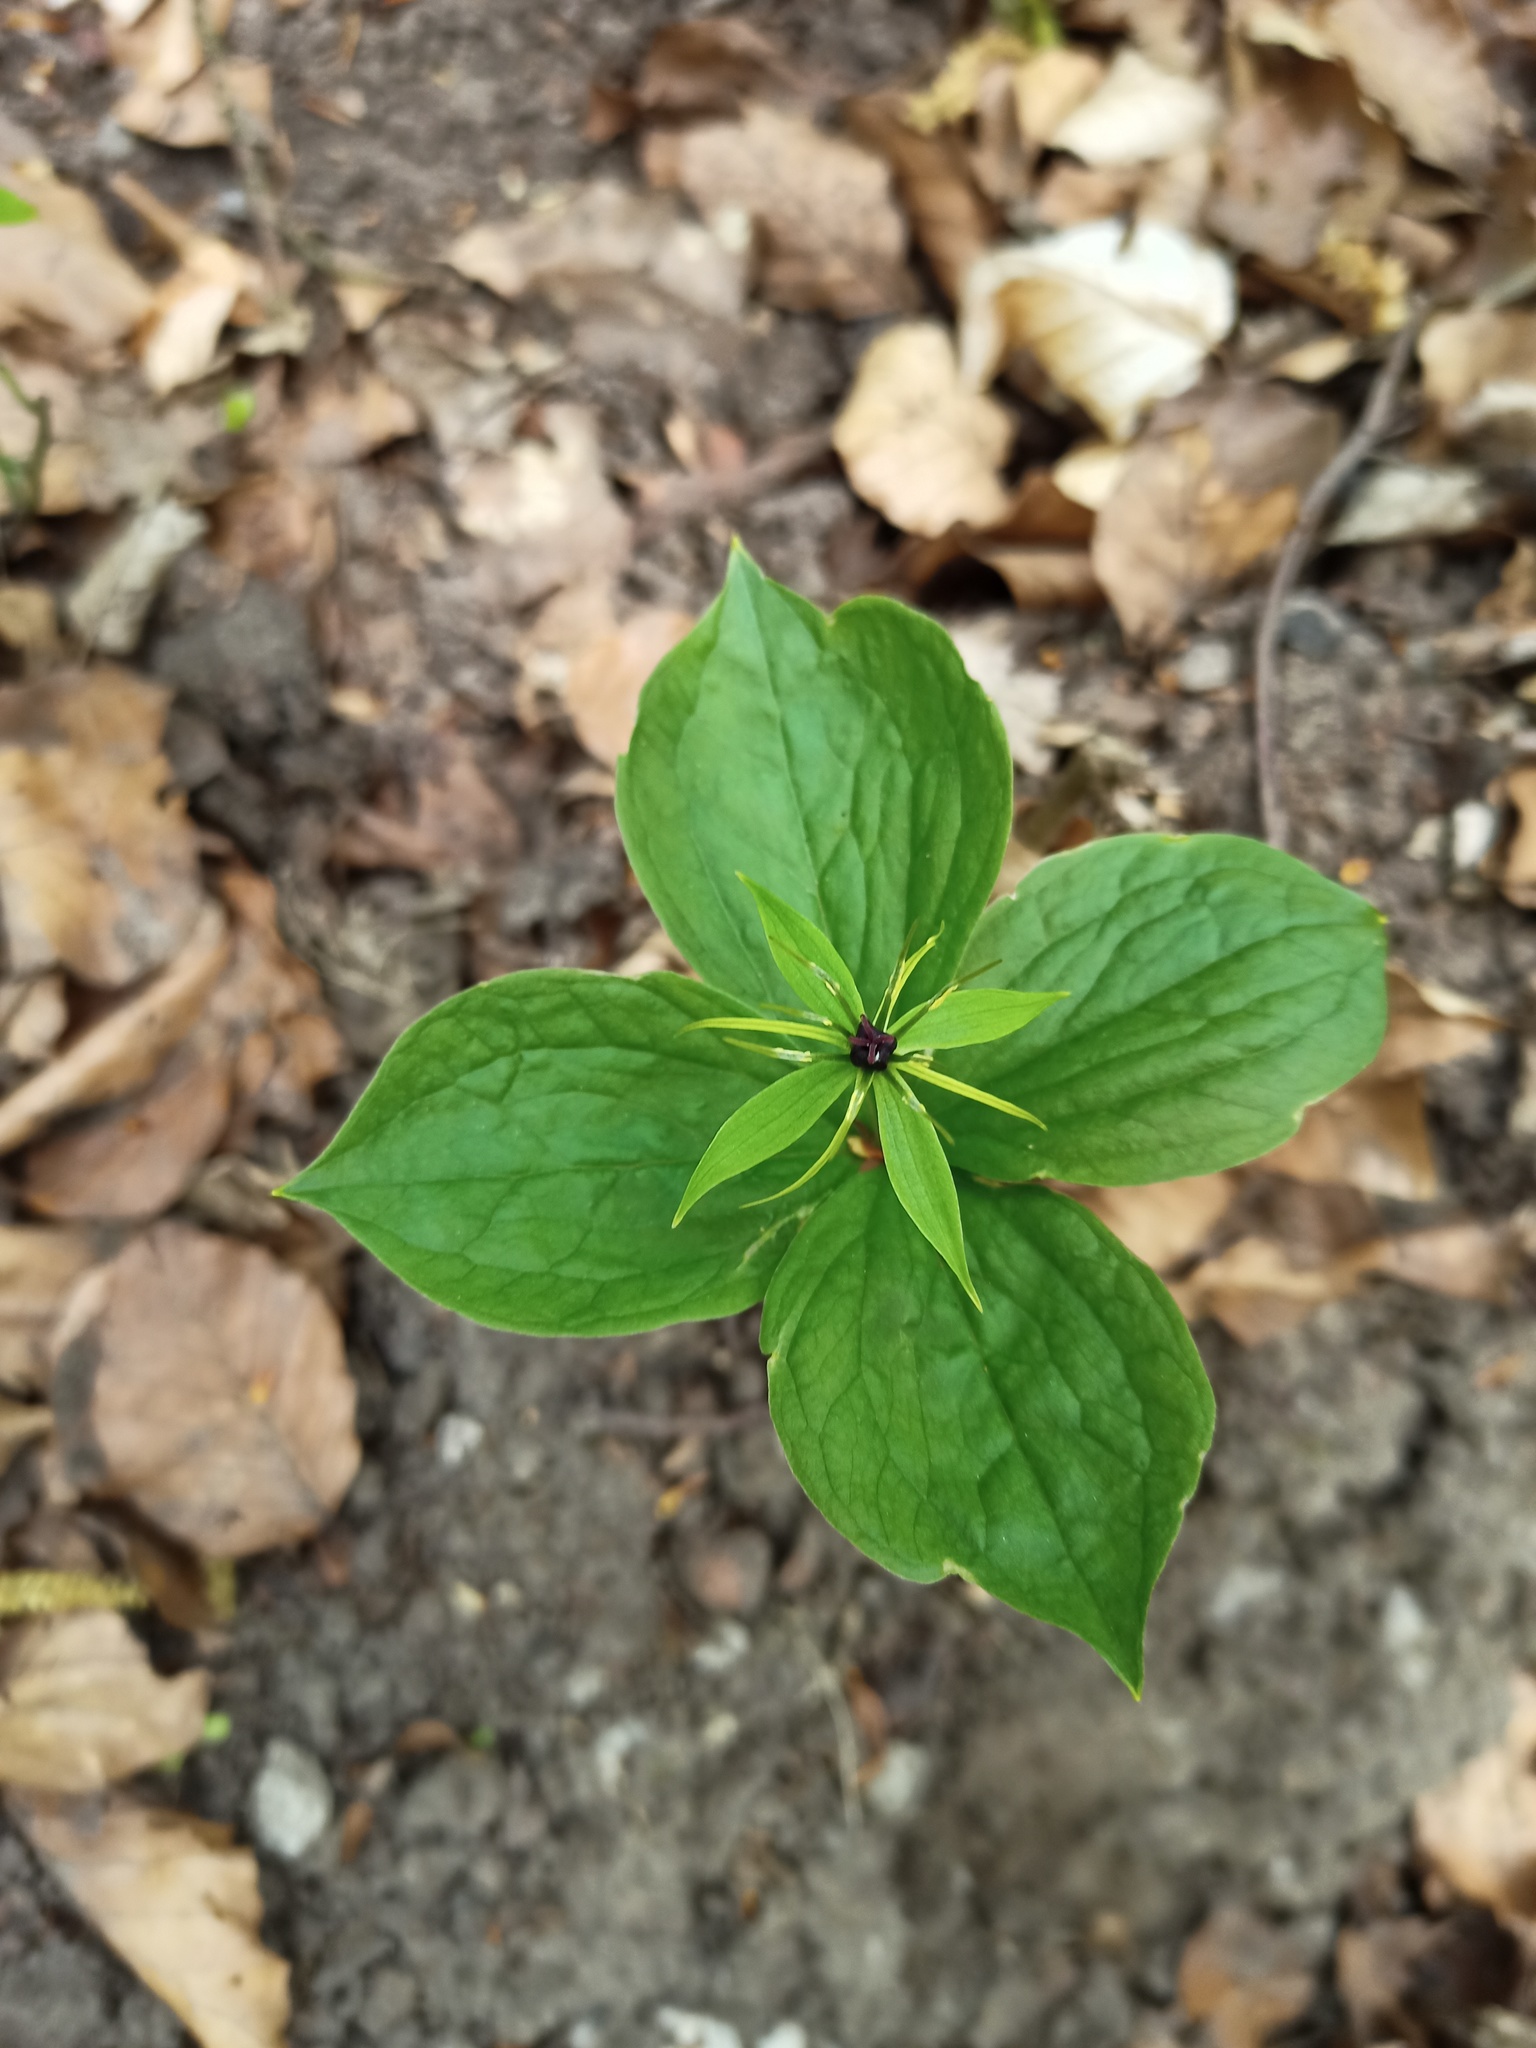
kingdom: Plantae
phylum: Tracheophyta
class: Liliopsida
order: Liliales
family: Melanthiaceae
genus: Paris
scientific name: Paris quadrifolia
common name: Herb-paris
